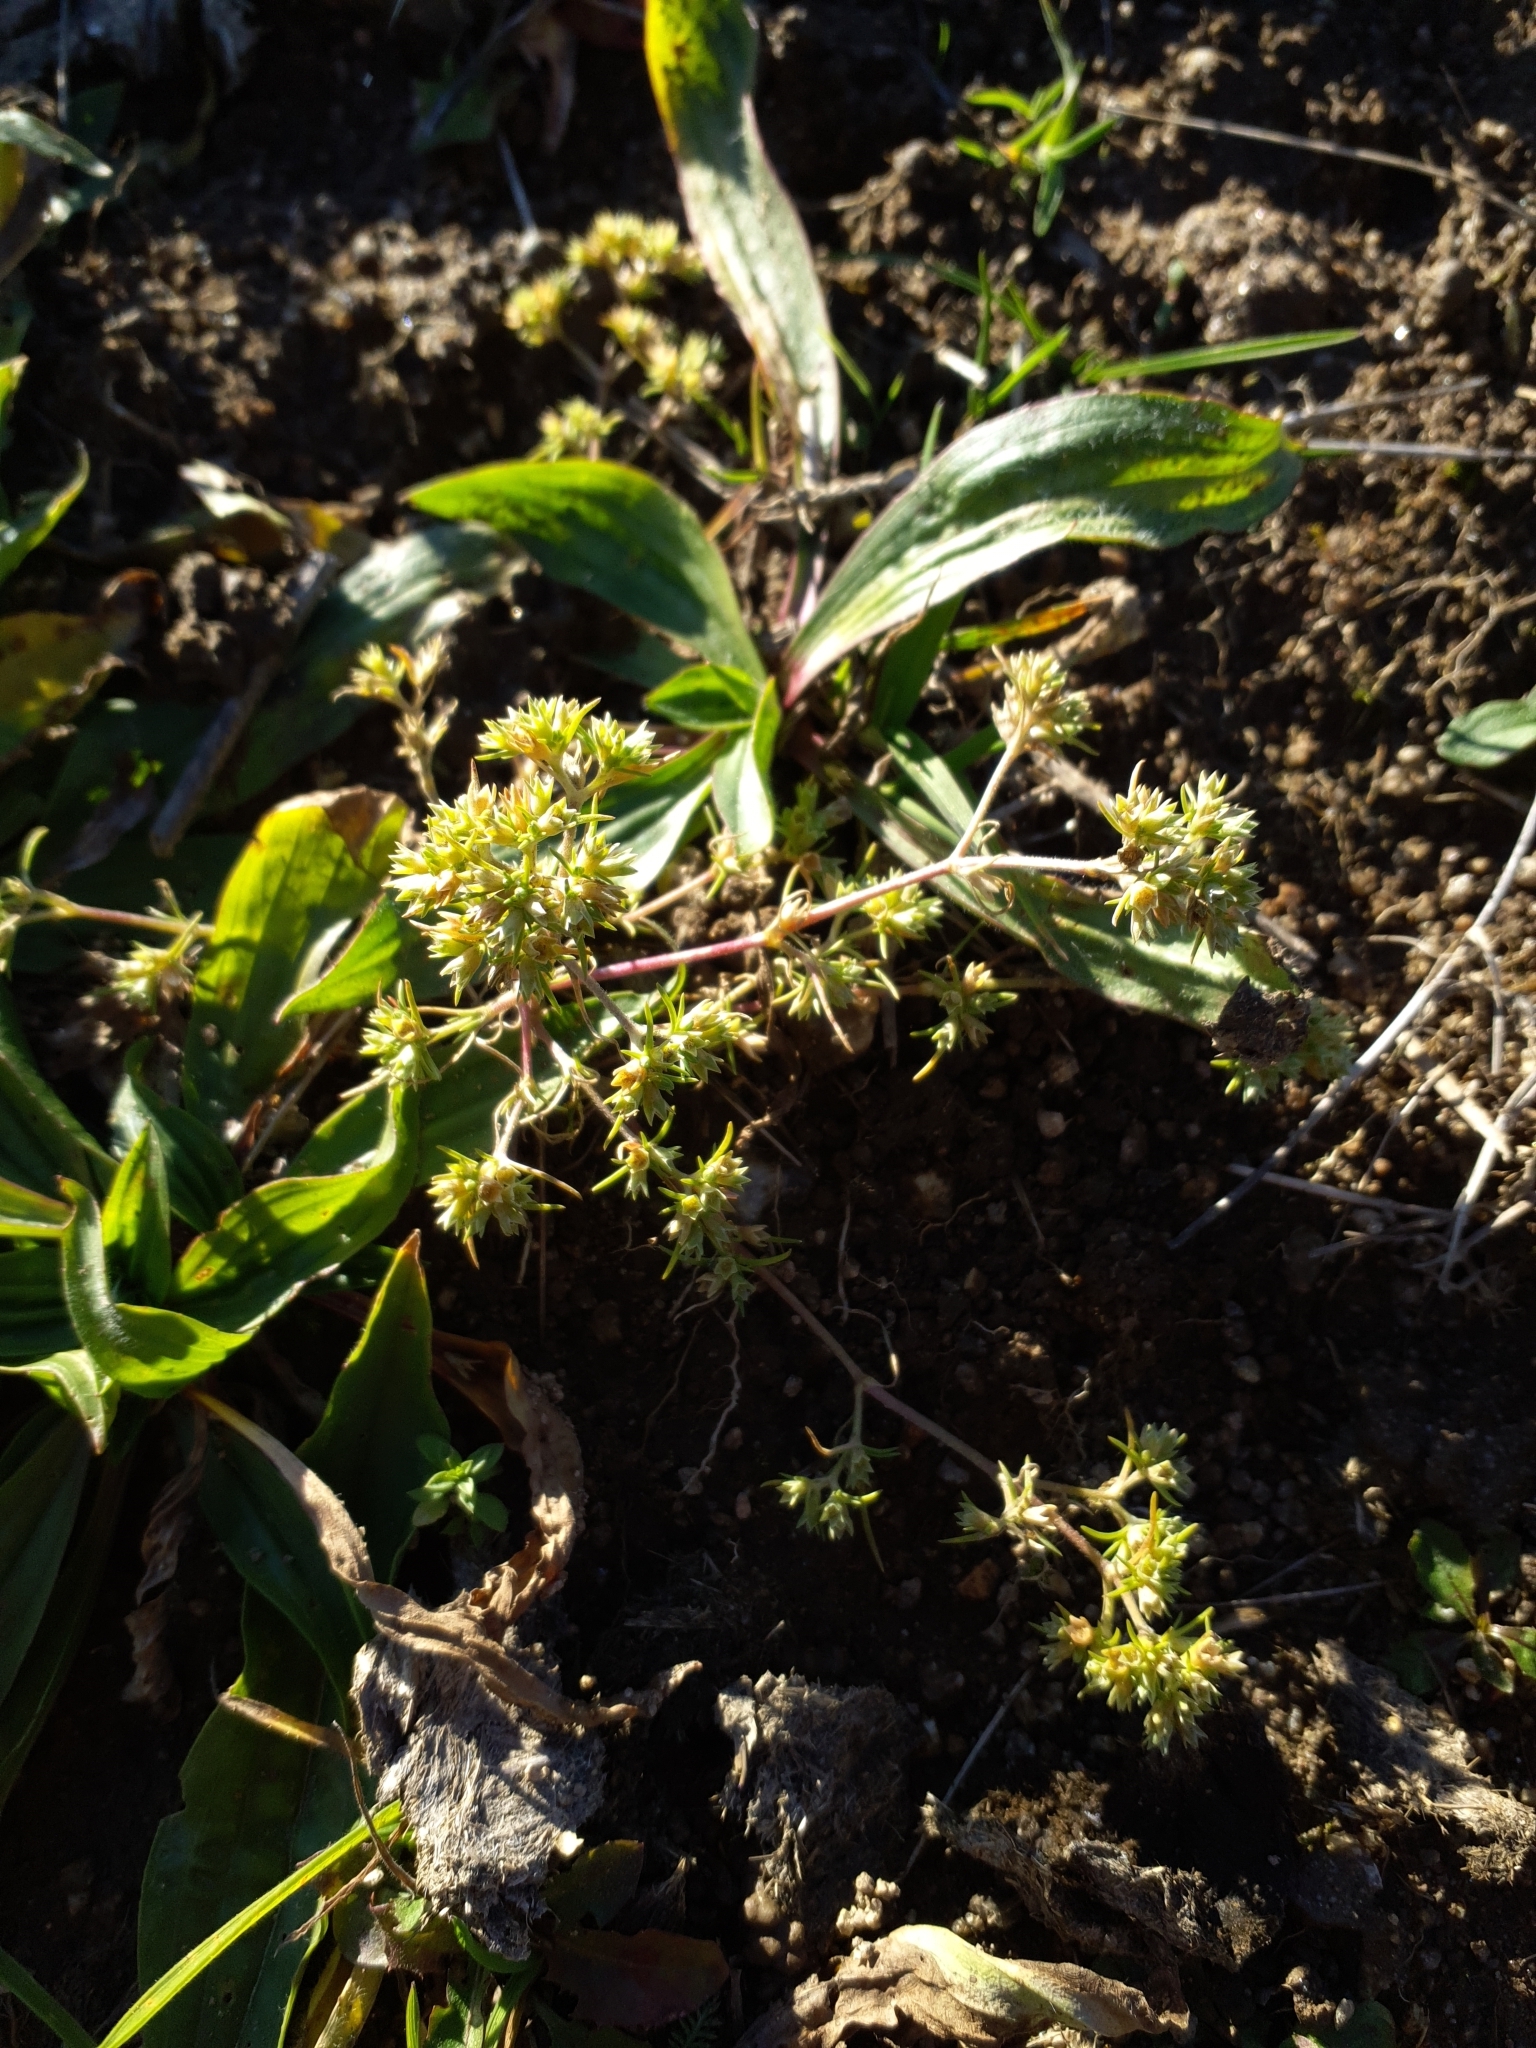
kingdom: Plantae
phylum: Tracheophyta
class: Magnoliopsida
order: Caryophyllales
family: Caryophyllaceae
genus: Scleranthus
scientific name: Scleranthus annuus
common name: Annual knawel
